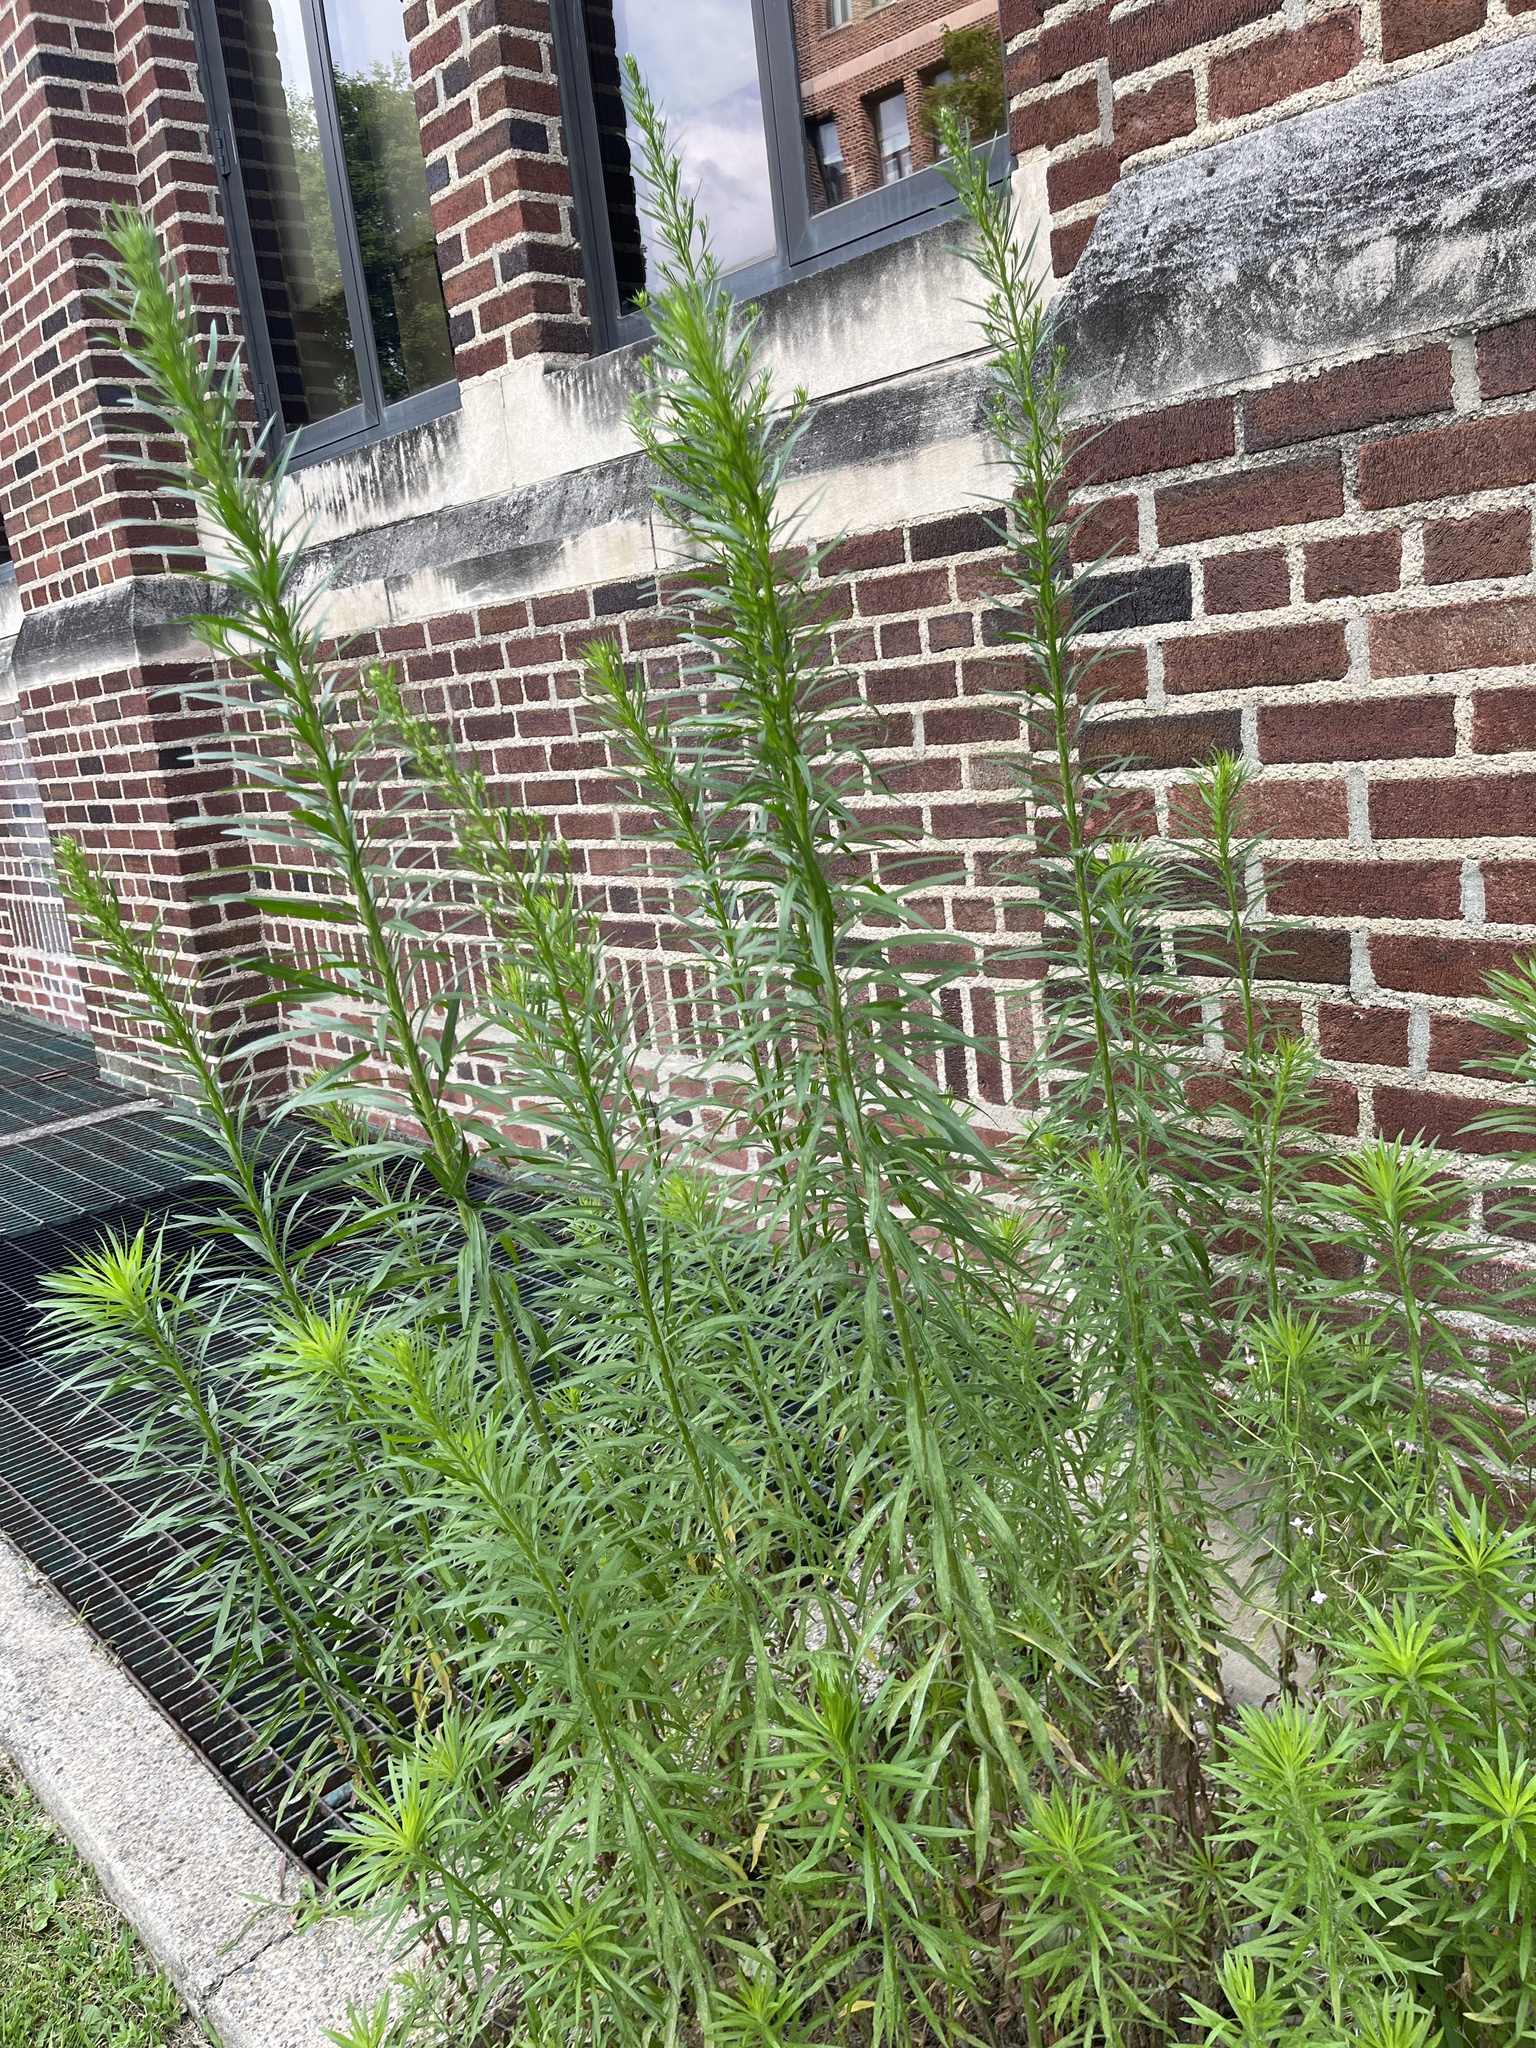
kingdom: Plantae
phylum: Tracheophyta
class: Magnoliopsida
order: Asterales
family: Asteraceae
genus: Erigeron
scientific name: Erigeron canadensis
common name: Canadian fleabane
